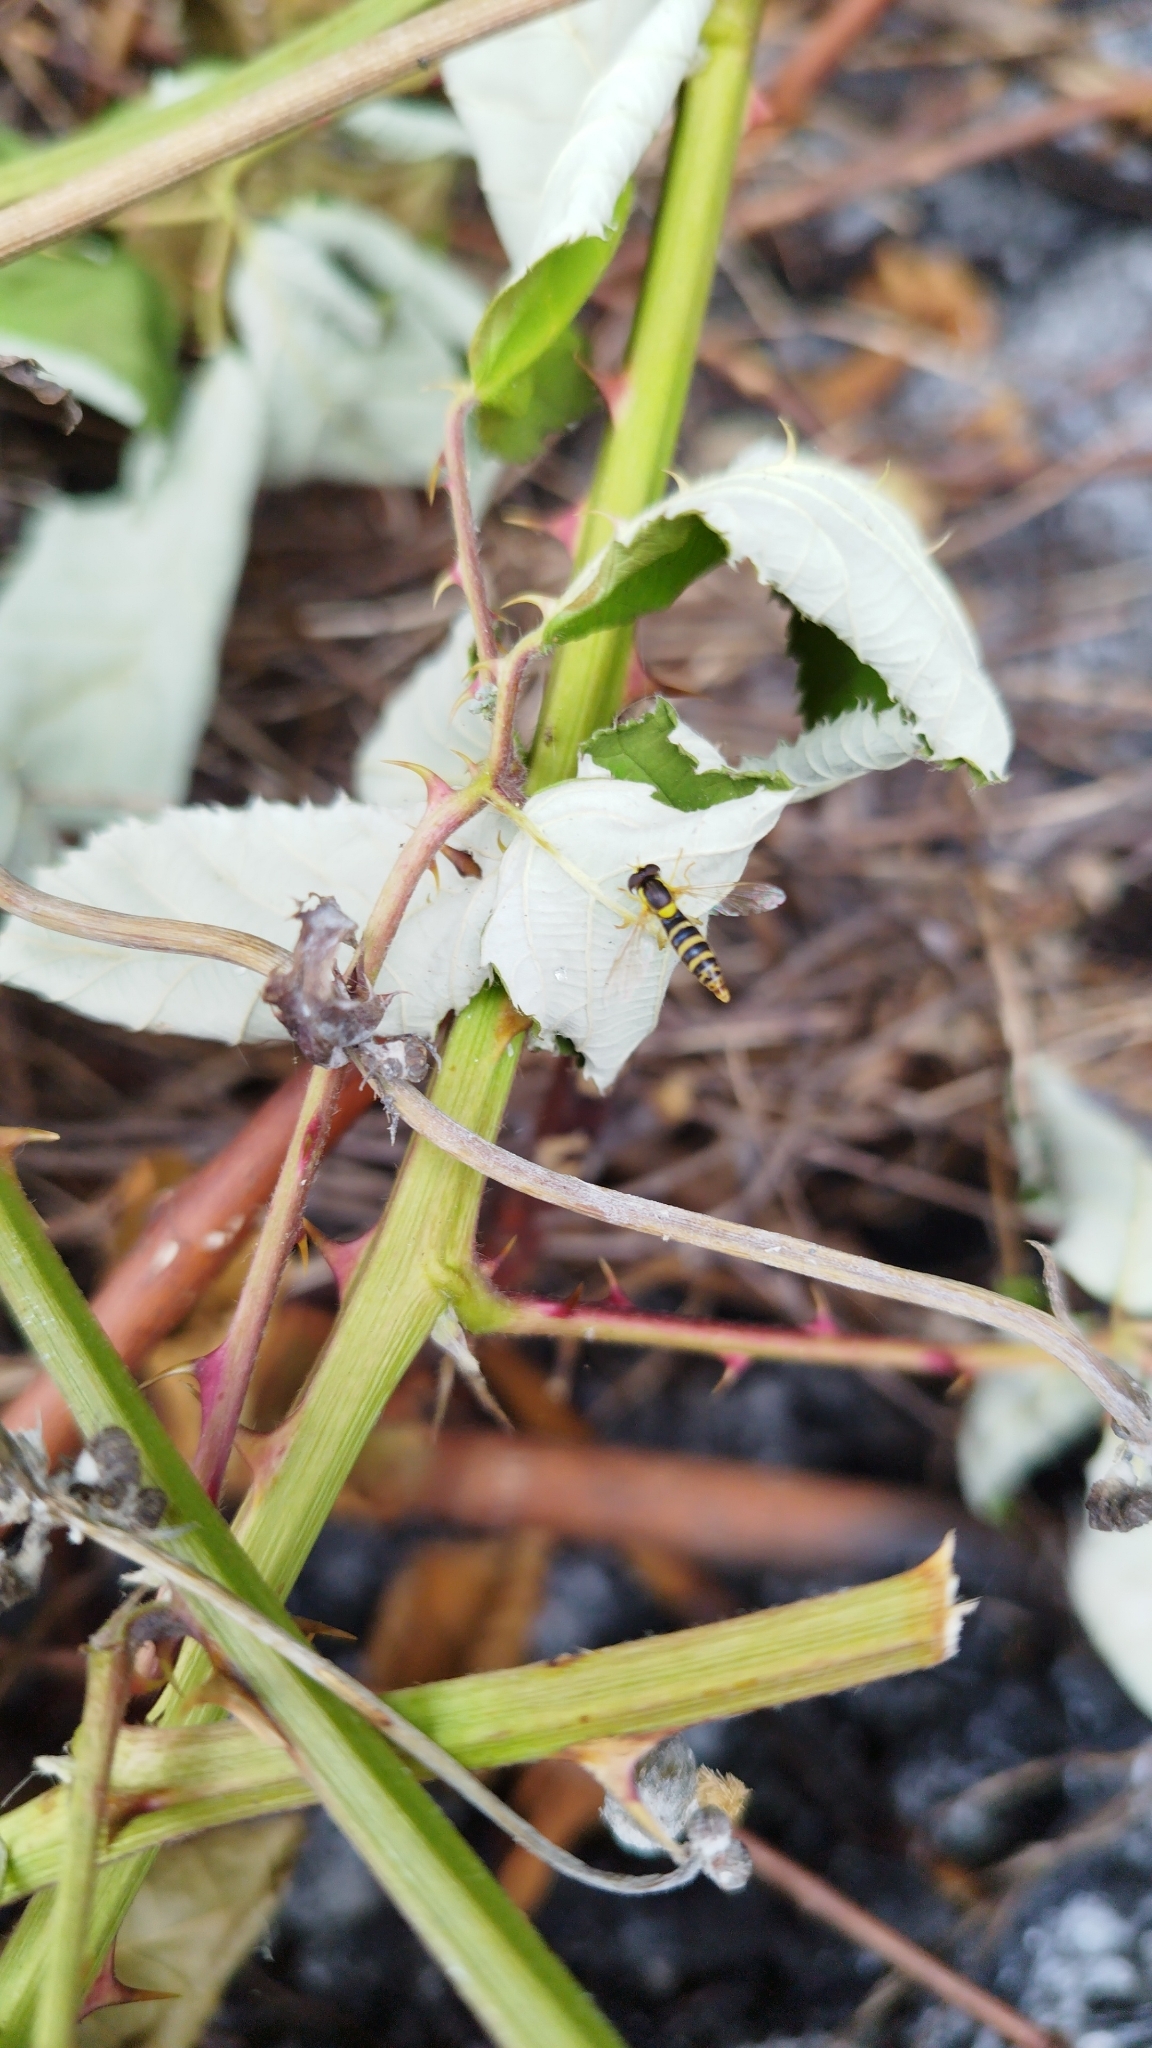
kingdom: Animalia
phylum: Arthropoda
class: Insecta
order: Diptera
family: Syrphidae
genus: Sphaerophoria
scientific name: Sphaerophoria
